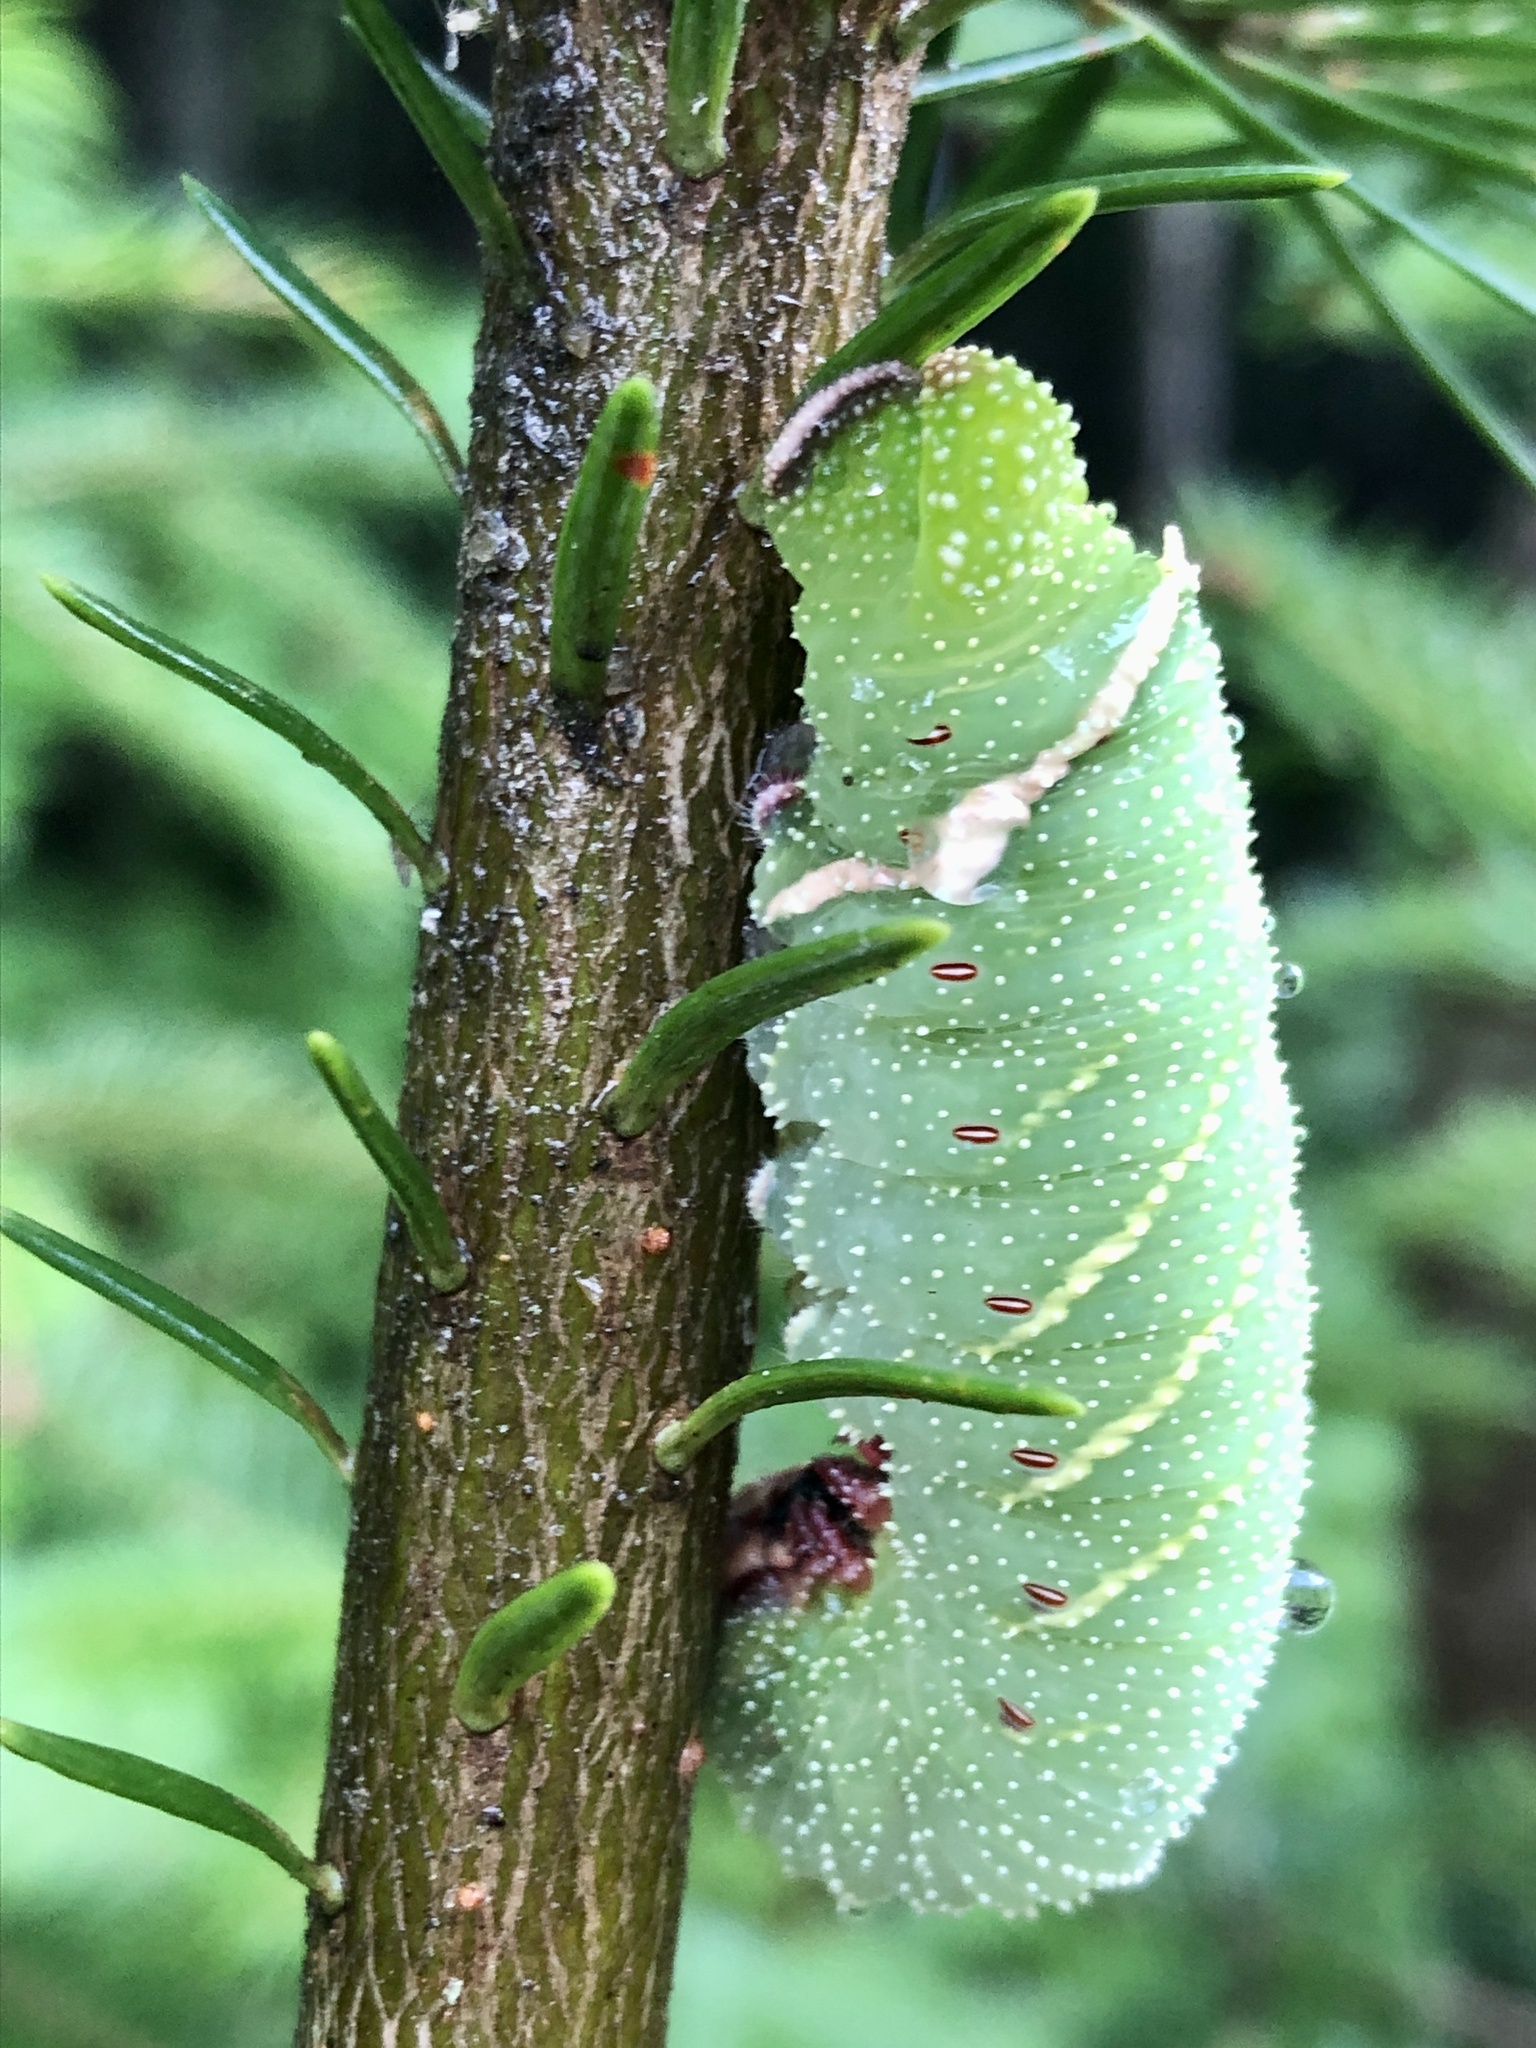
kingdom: Animalia
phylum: Arthropoda
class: Insecta
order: Lepidoptera
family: Sphingidae
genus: Pachysphinx
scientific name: Pachysphinx modesta
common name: Big poplar sphinx
